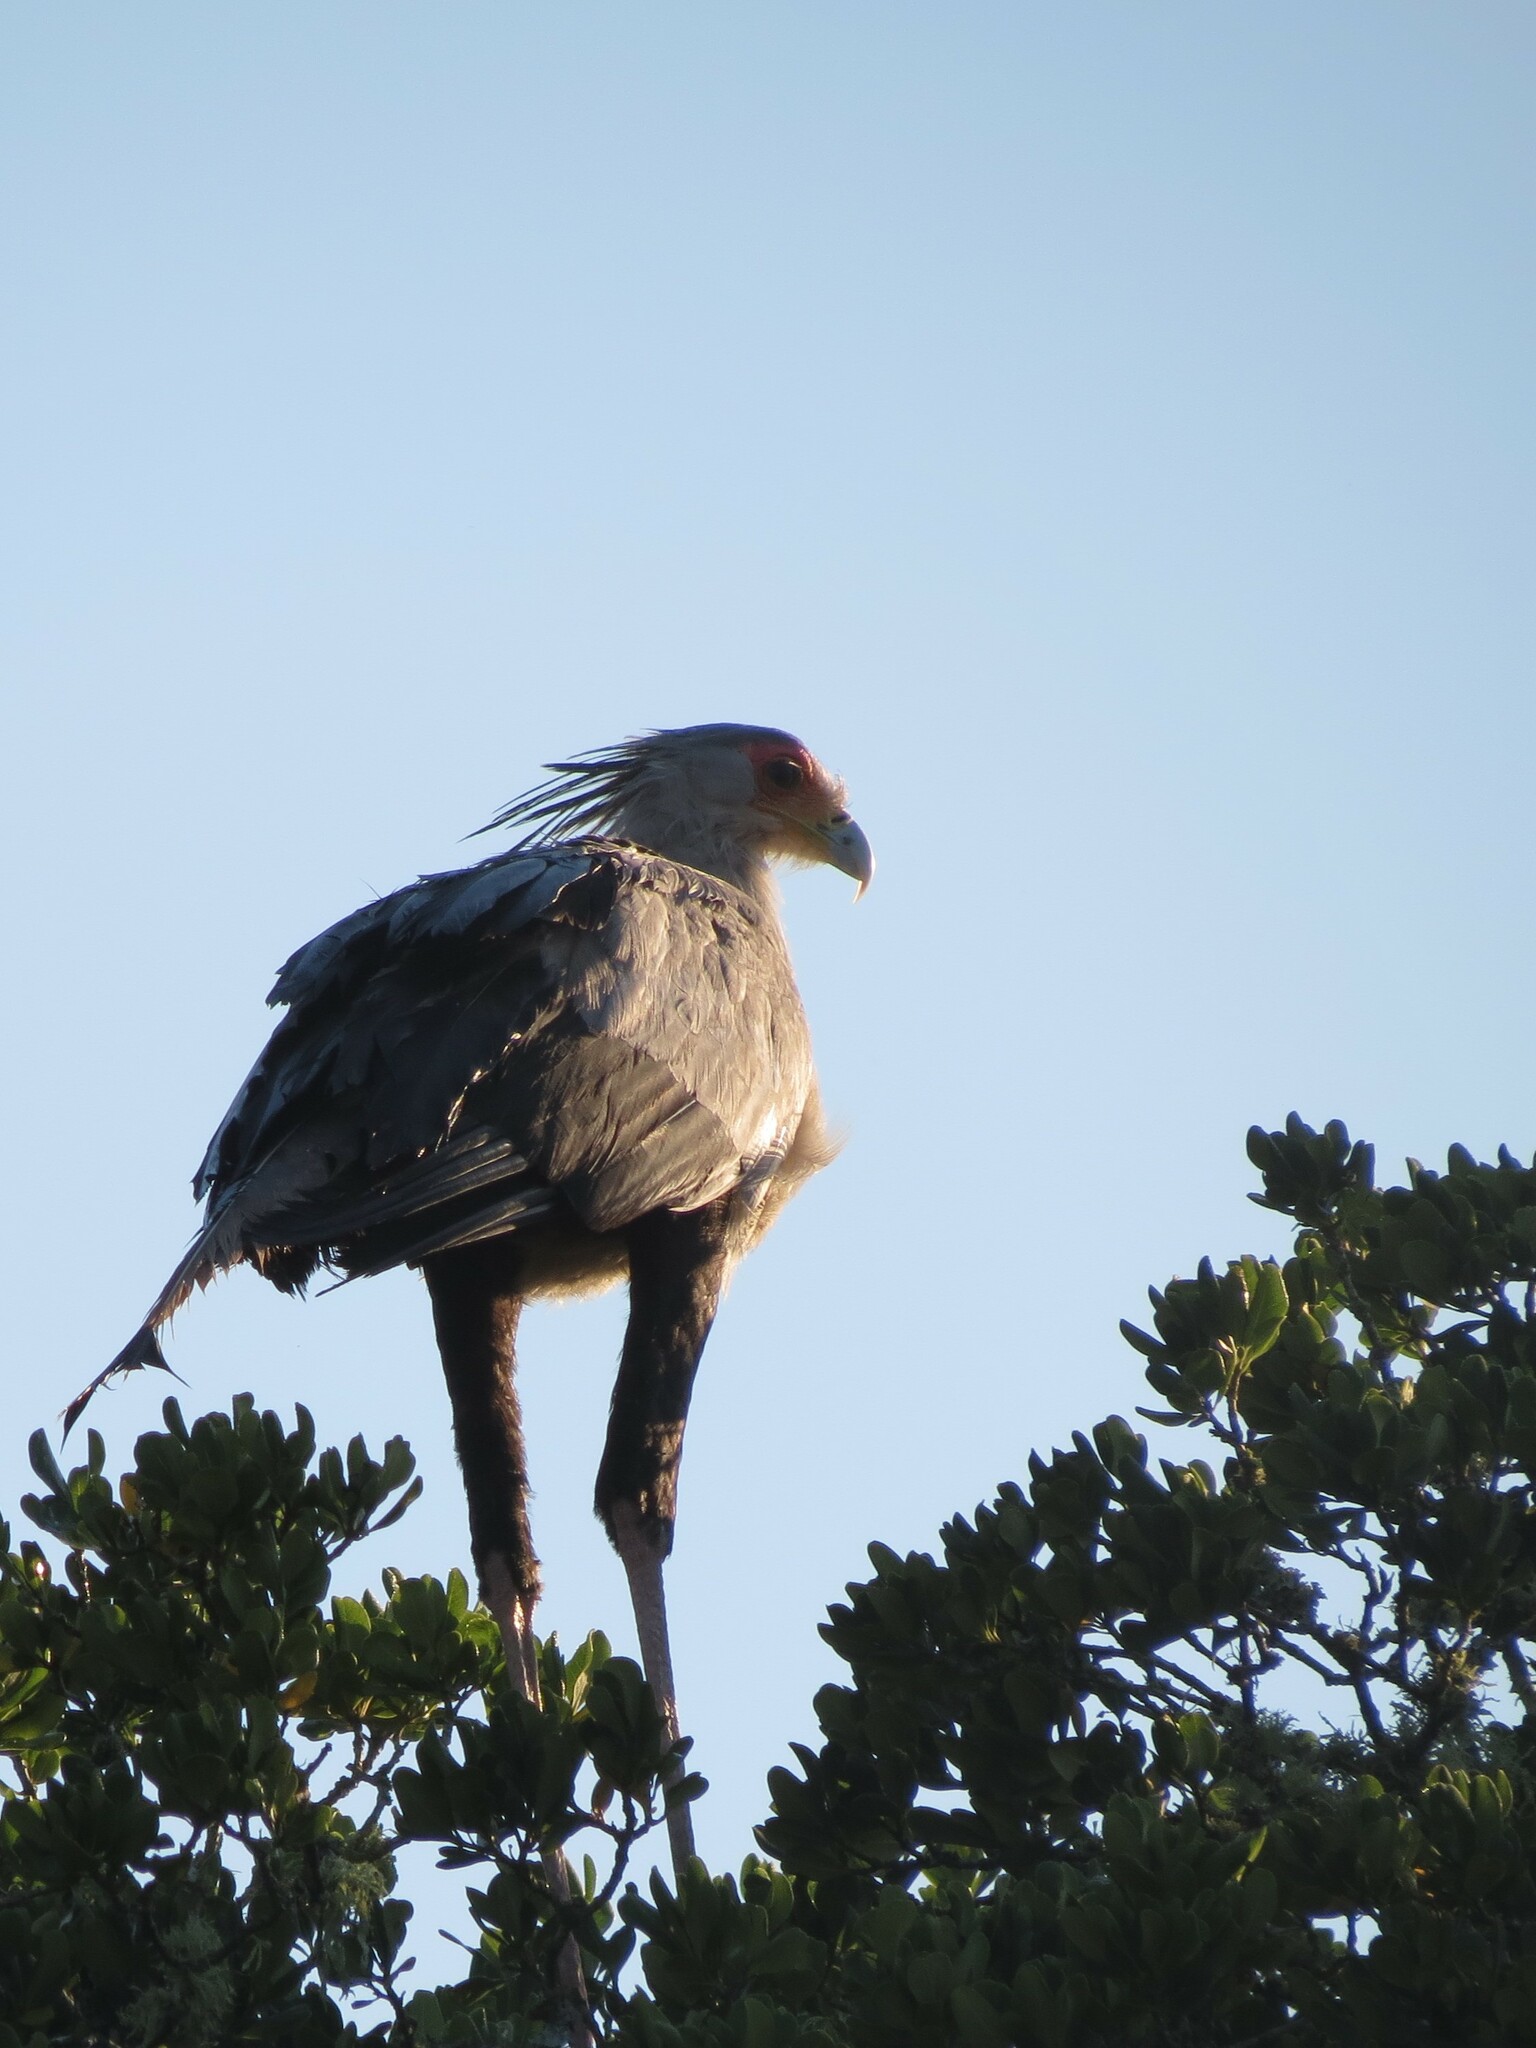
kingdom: Animalia
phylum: Chordata
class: Aves
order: Accipitriformes
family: Sagittariidae
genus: Sagittarius
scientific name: Sagittarius serpentarius
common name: Secretarybird
